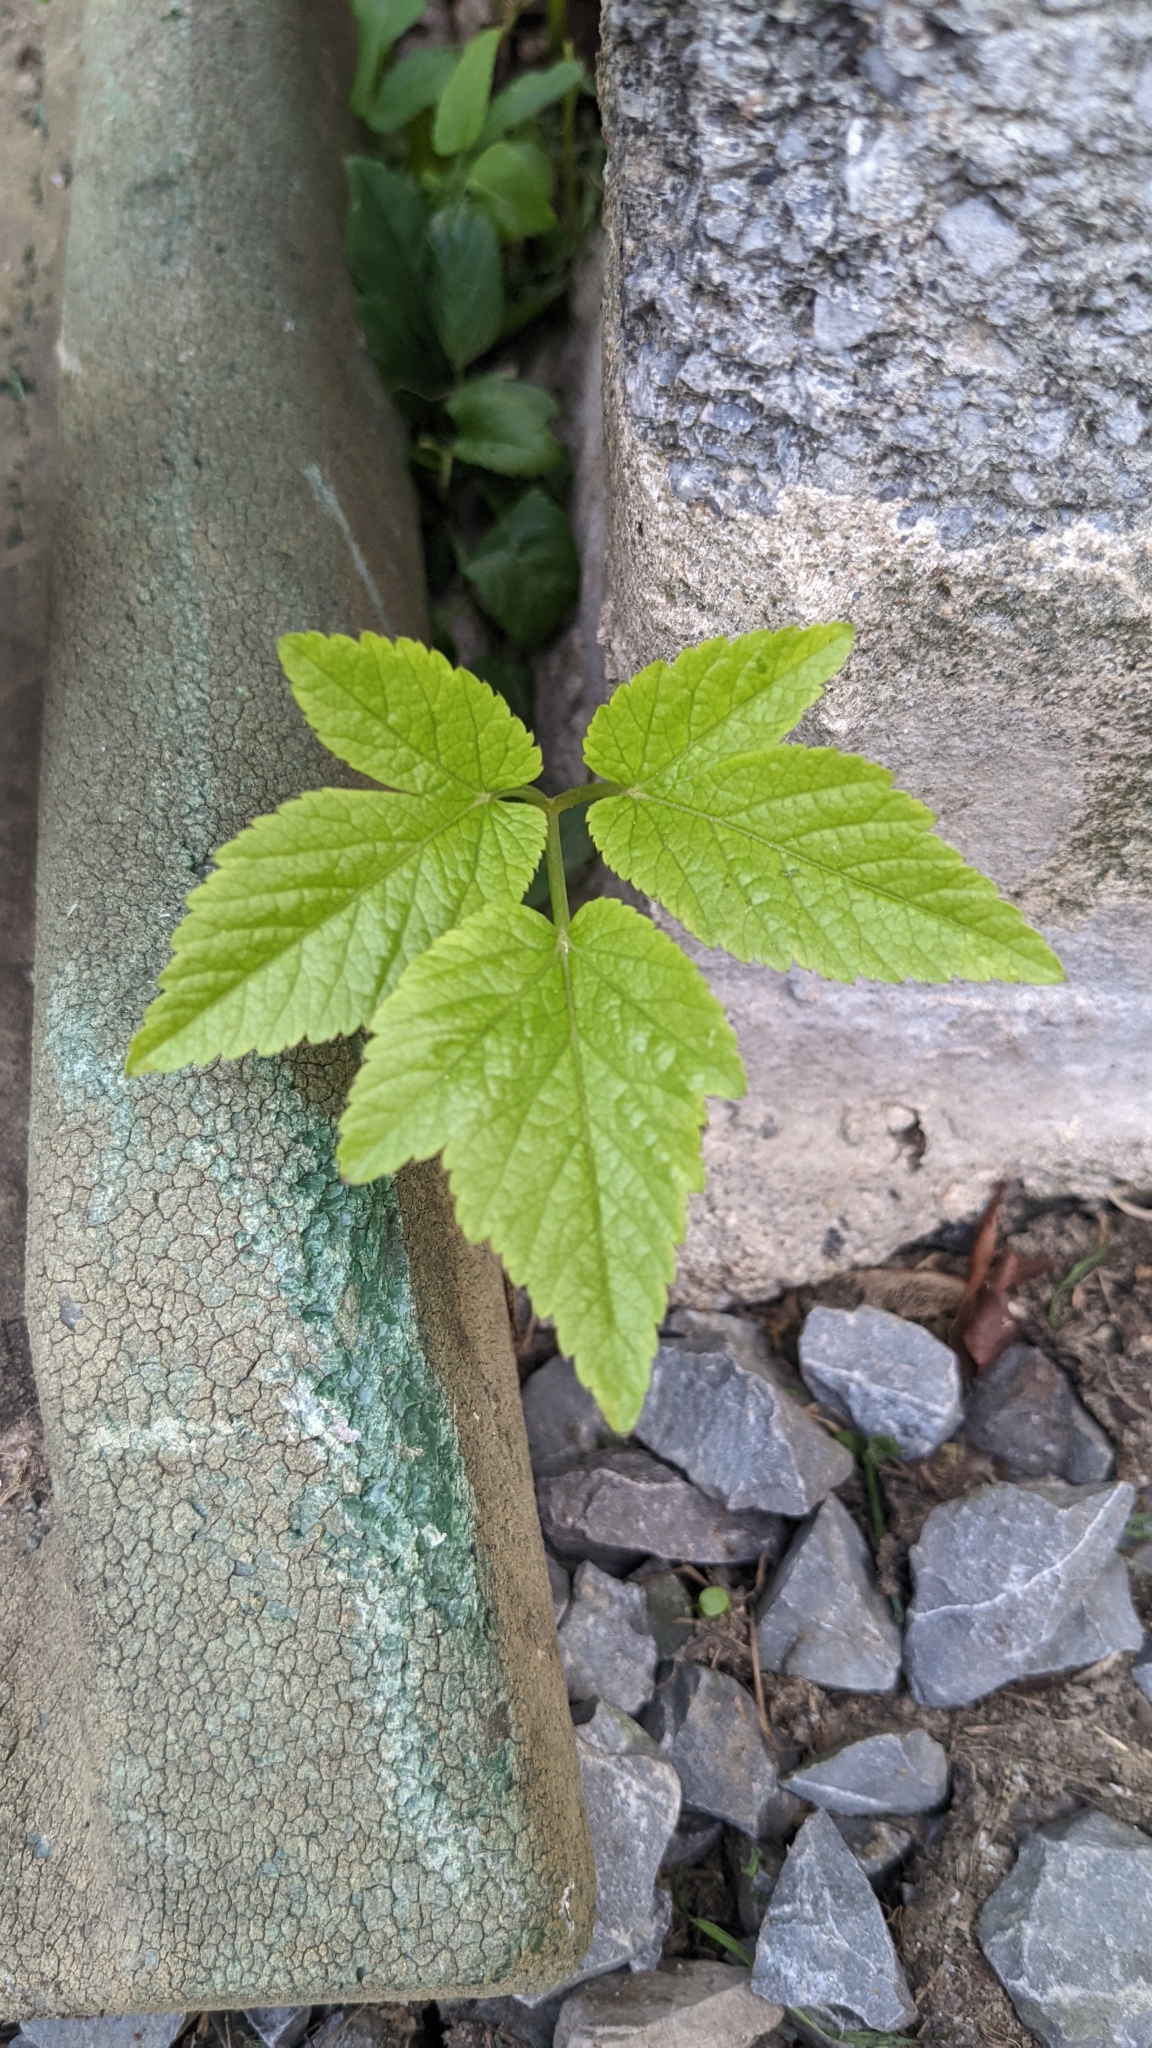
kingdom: Plantae
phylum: Tracheophyta
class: Magnoliopsida
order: Apiales
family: Apiaceae
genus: Aegopodium
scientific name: Aegopodium podagraria
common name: Ground-elder
